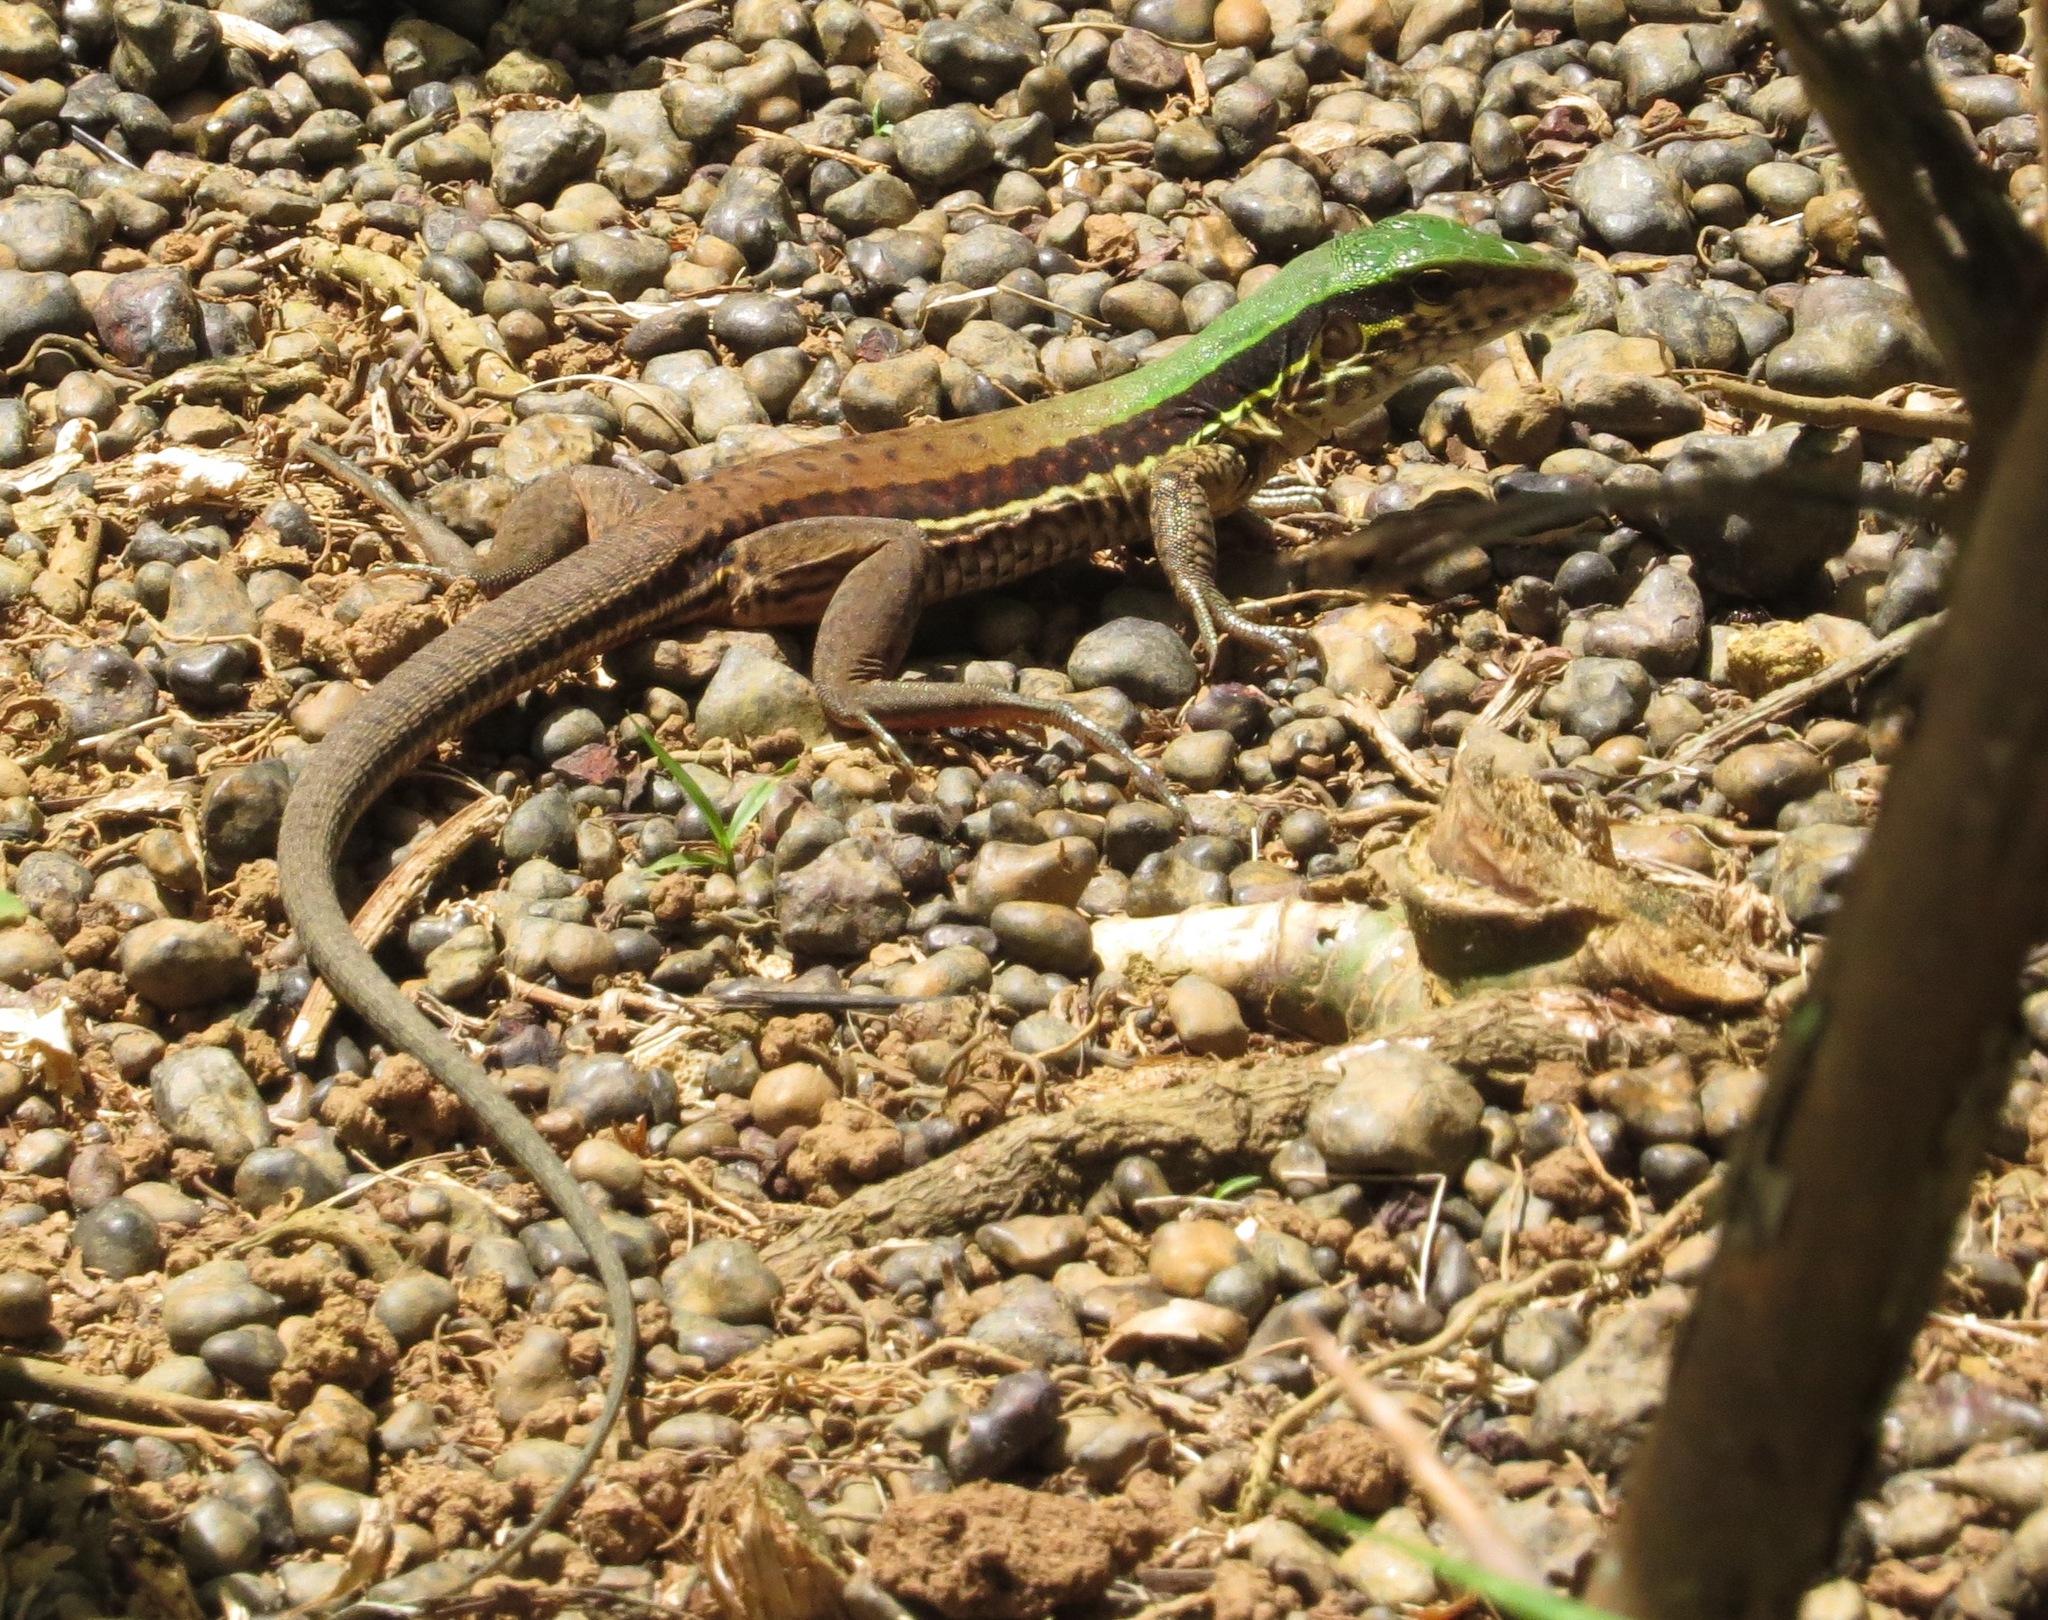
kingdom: Animalia
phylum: Chordata
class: Squamata
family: Teiidae
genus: Ameiva
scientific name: Ameiva ameiva
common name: Giant ameiva
